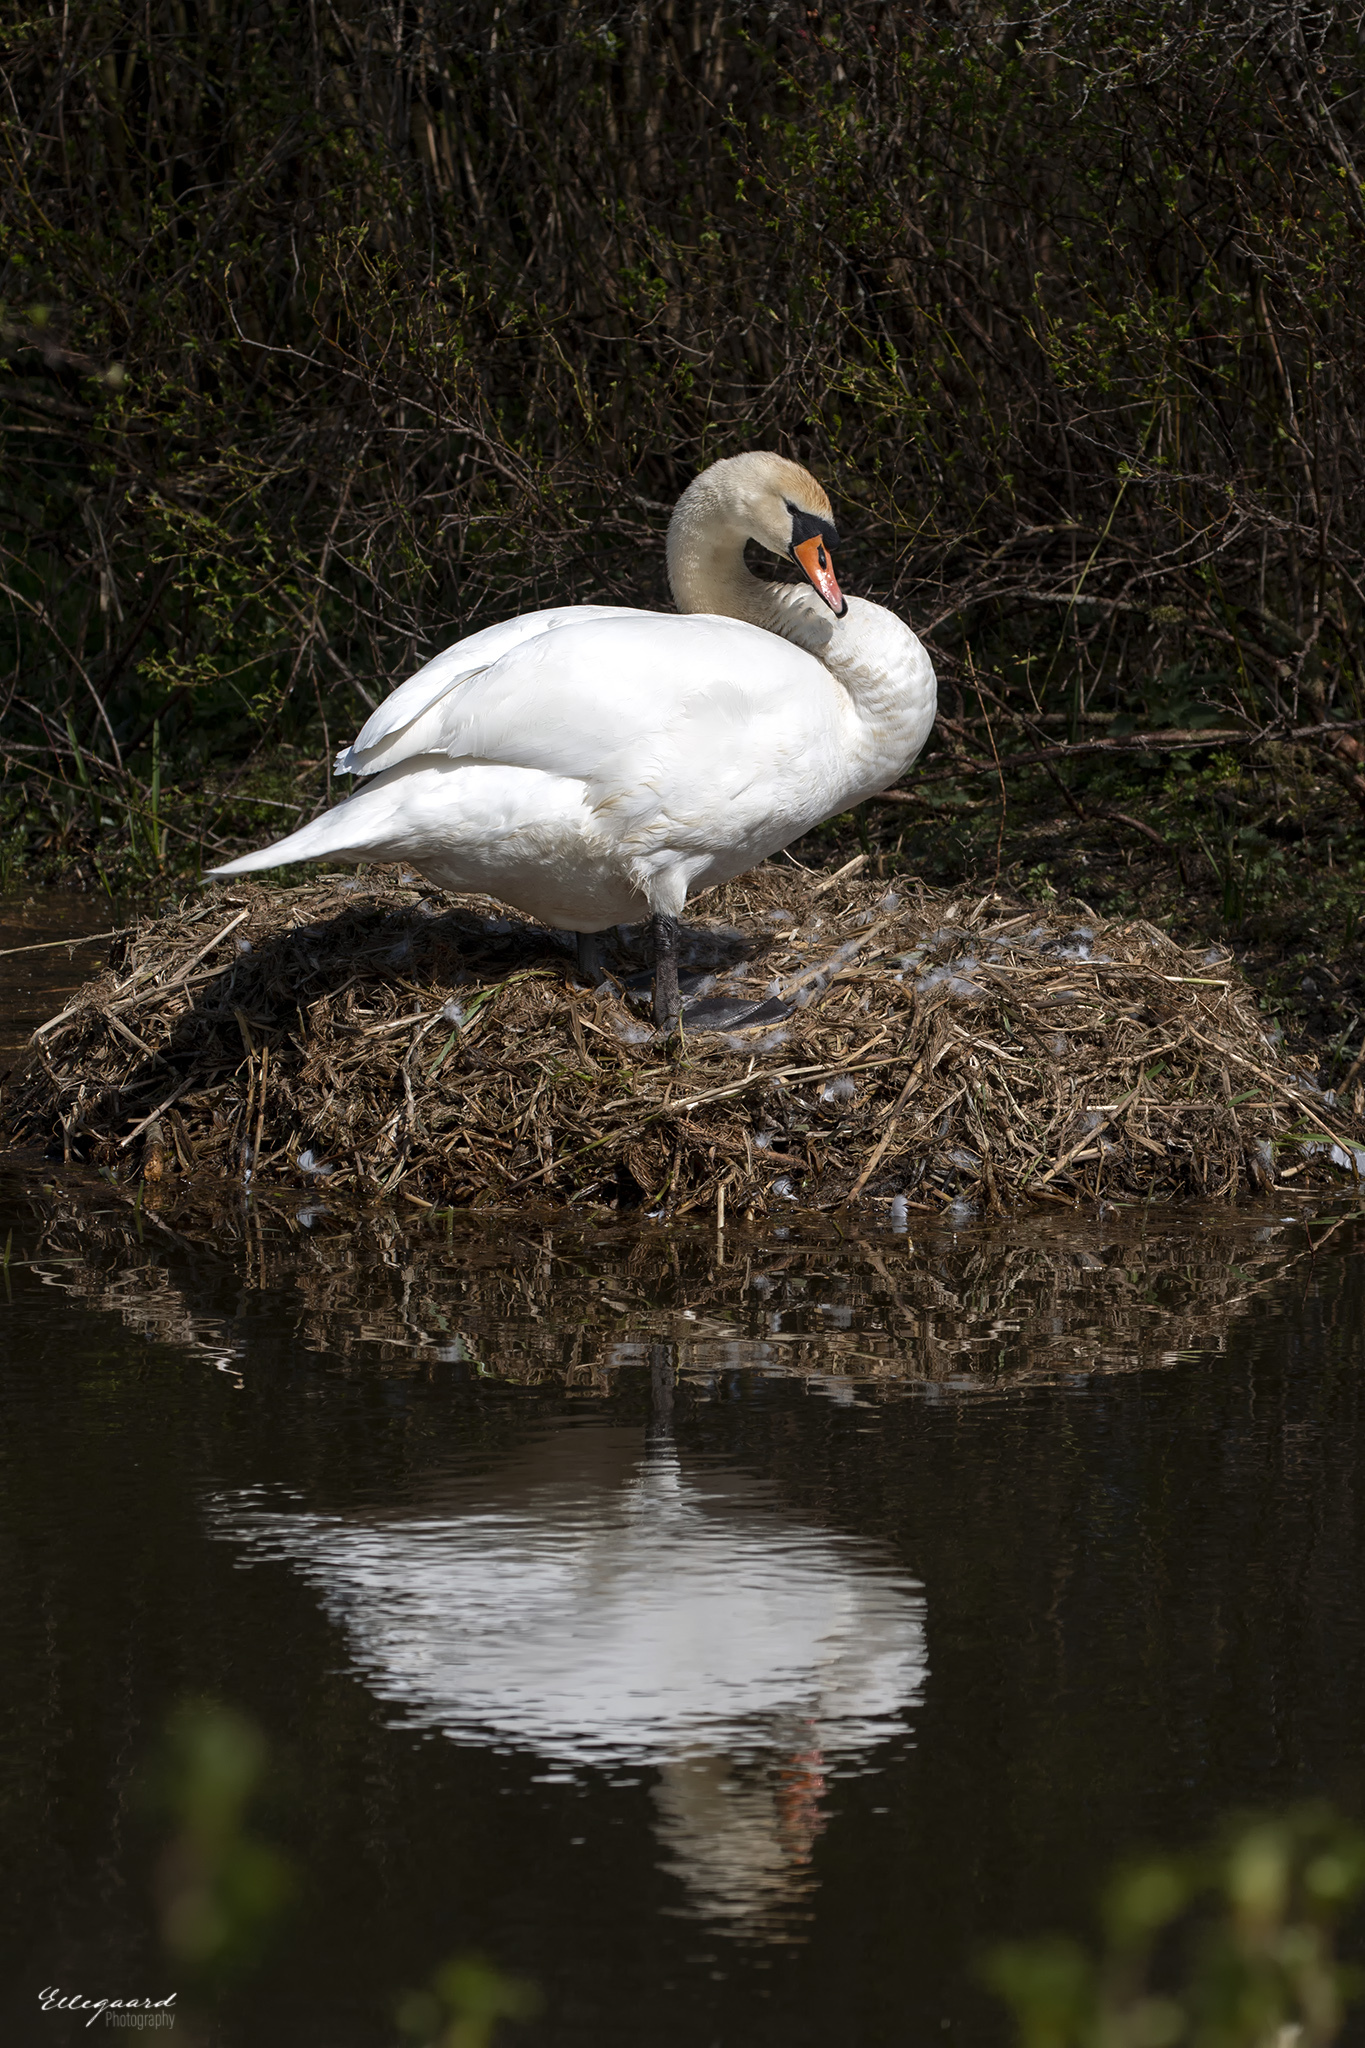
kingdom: Animalia
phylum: Chordata
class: Aves
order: Anseriformes
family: Anatidae
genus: Cygnus
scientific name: Cygnus olor
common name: Mute swan
